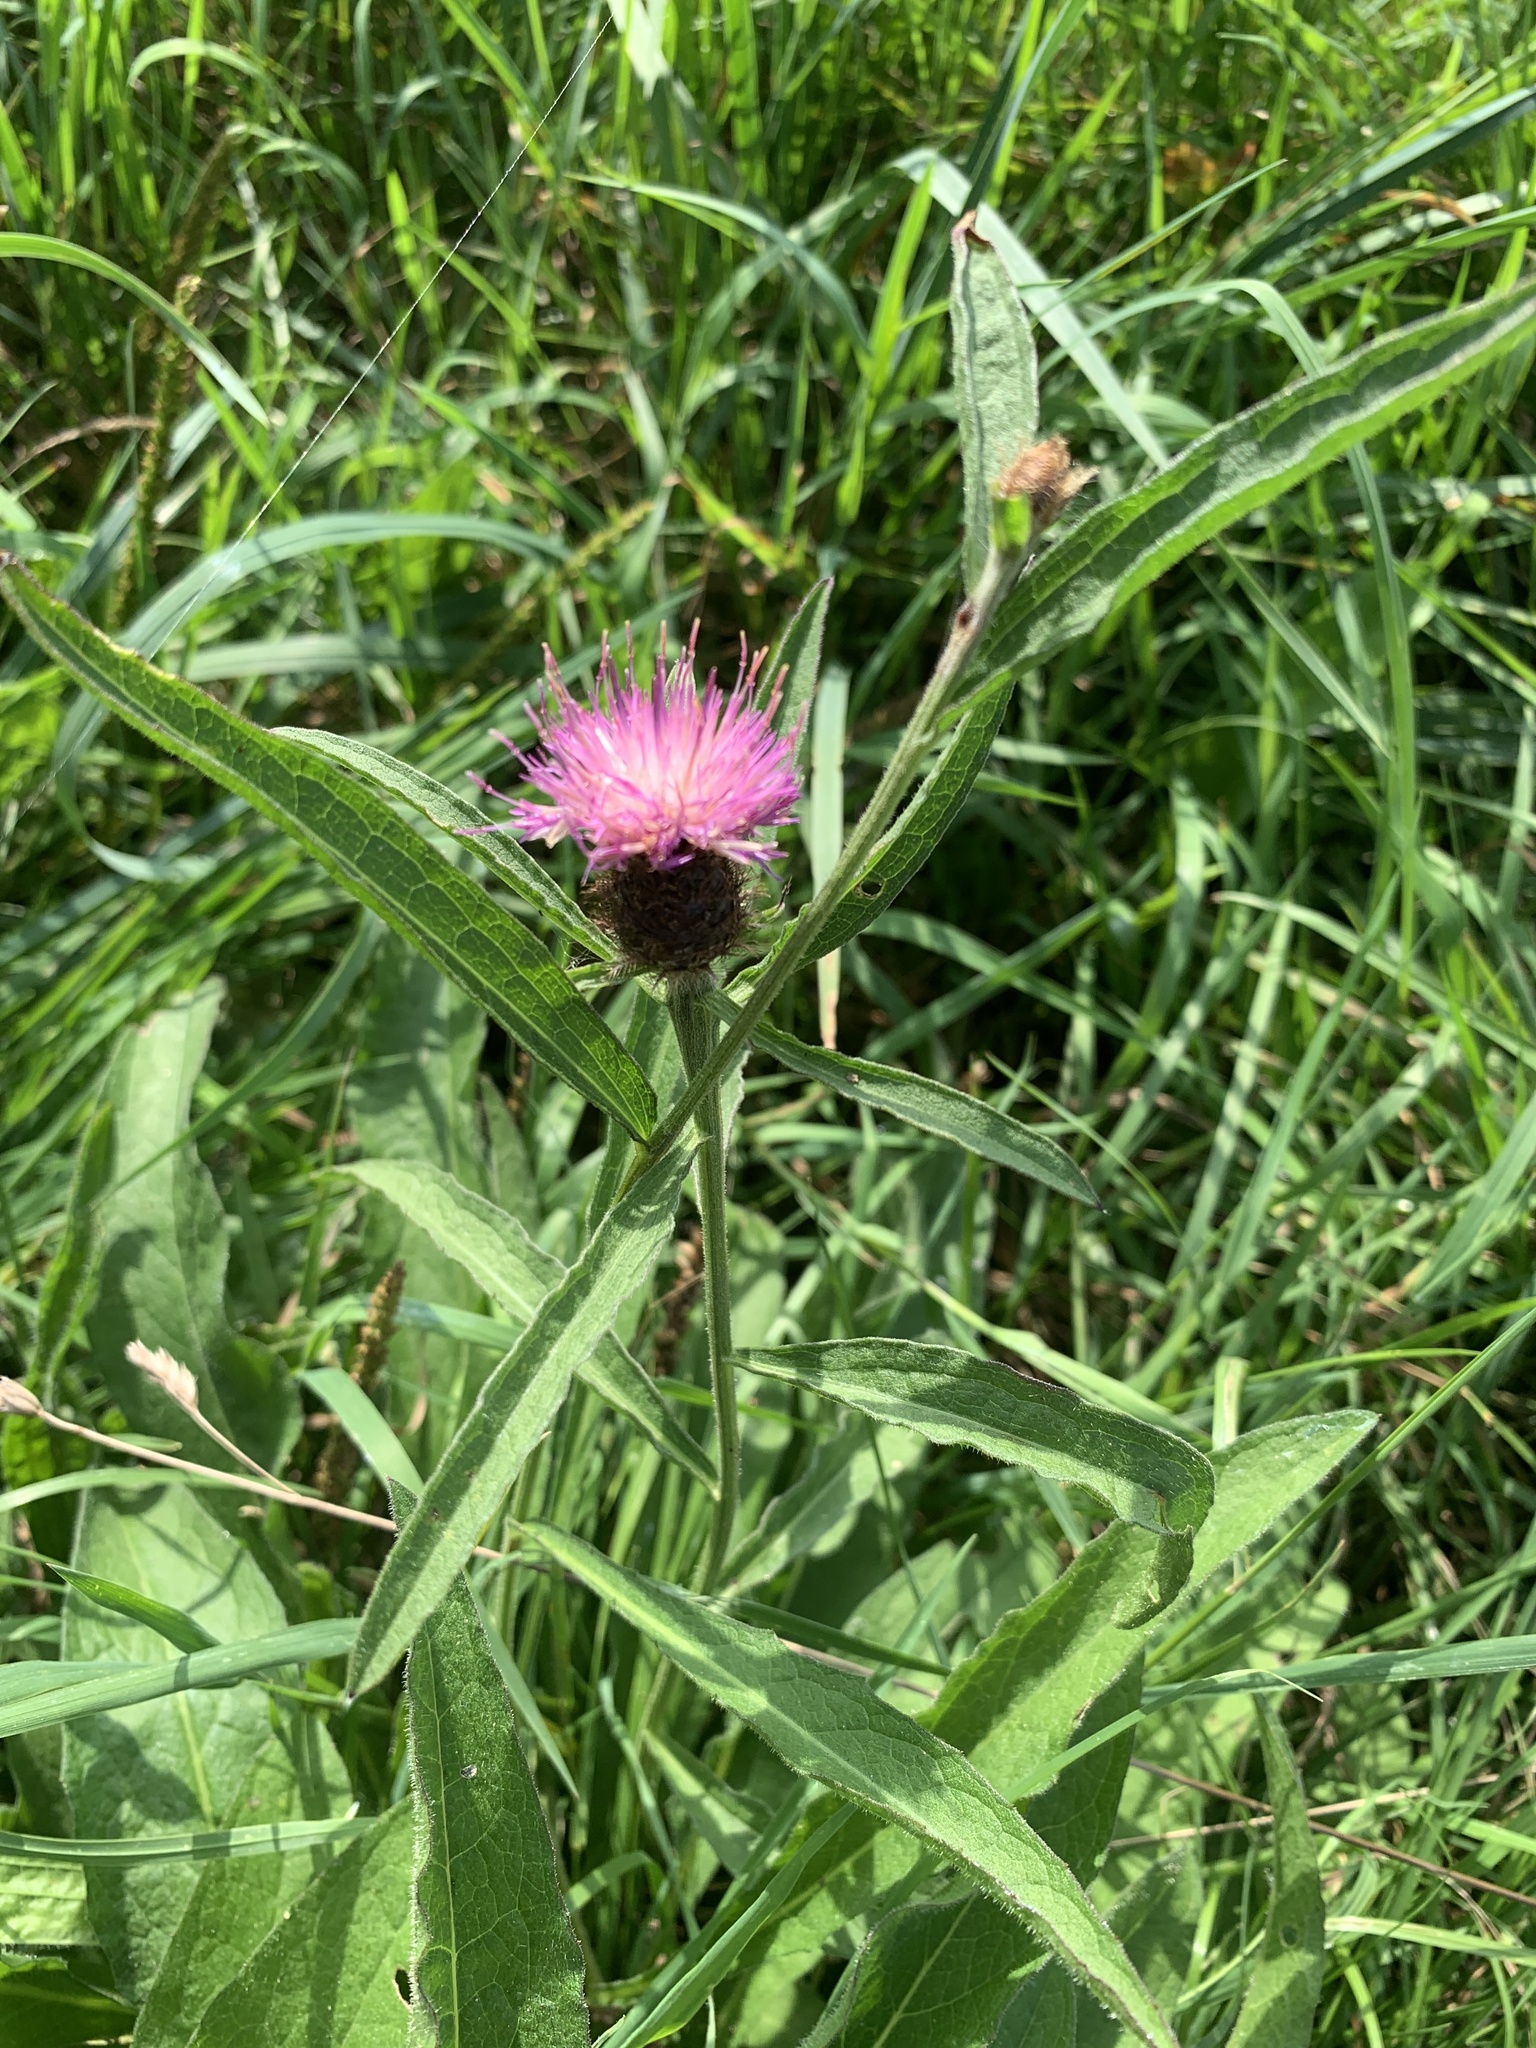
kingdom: Plantae
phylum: Tracheophyta
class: Magnoliopsida
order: Asterales
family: Asteraceae
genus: Centaurea
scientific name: Centaurea nigra
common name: Lesser knapweed
